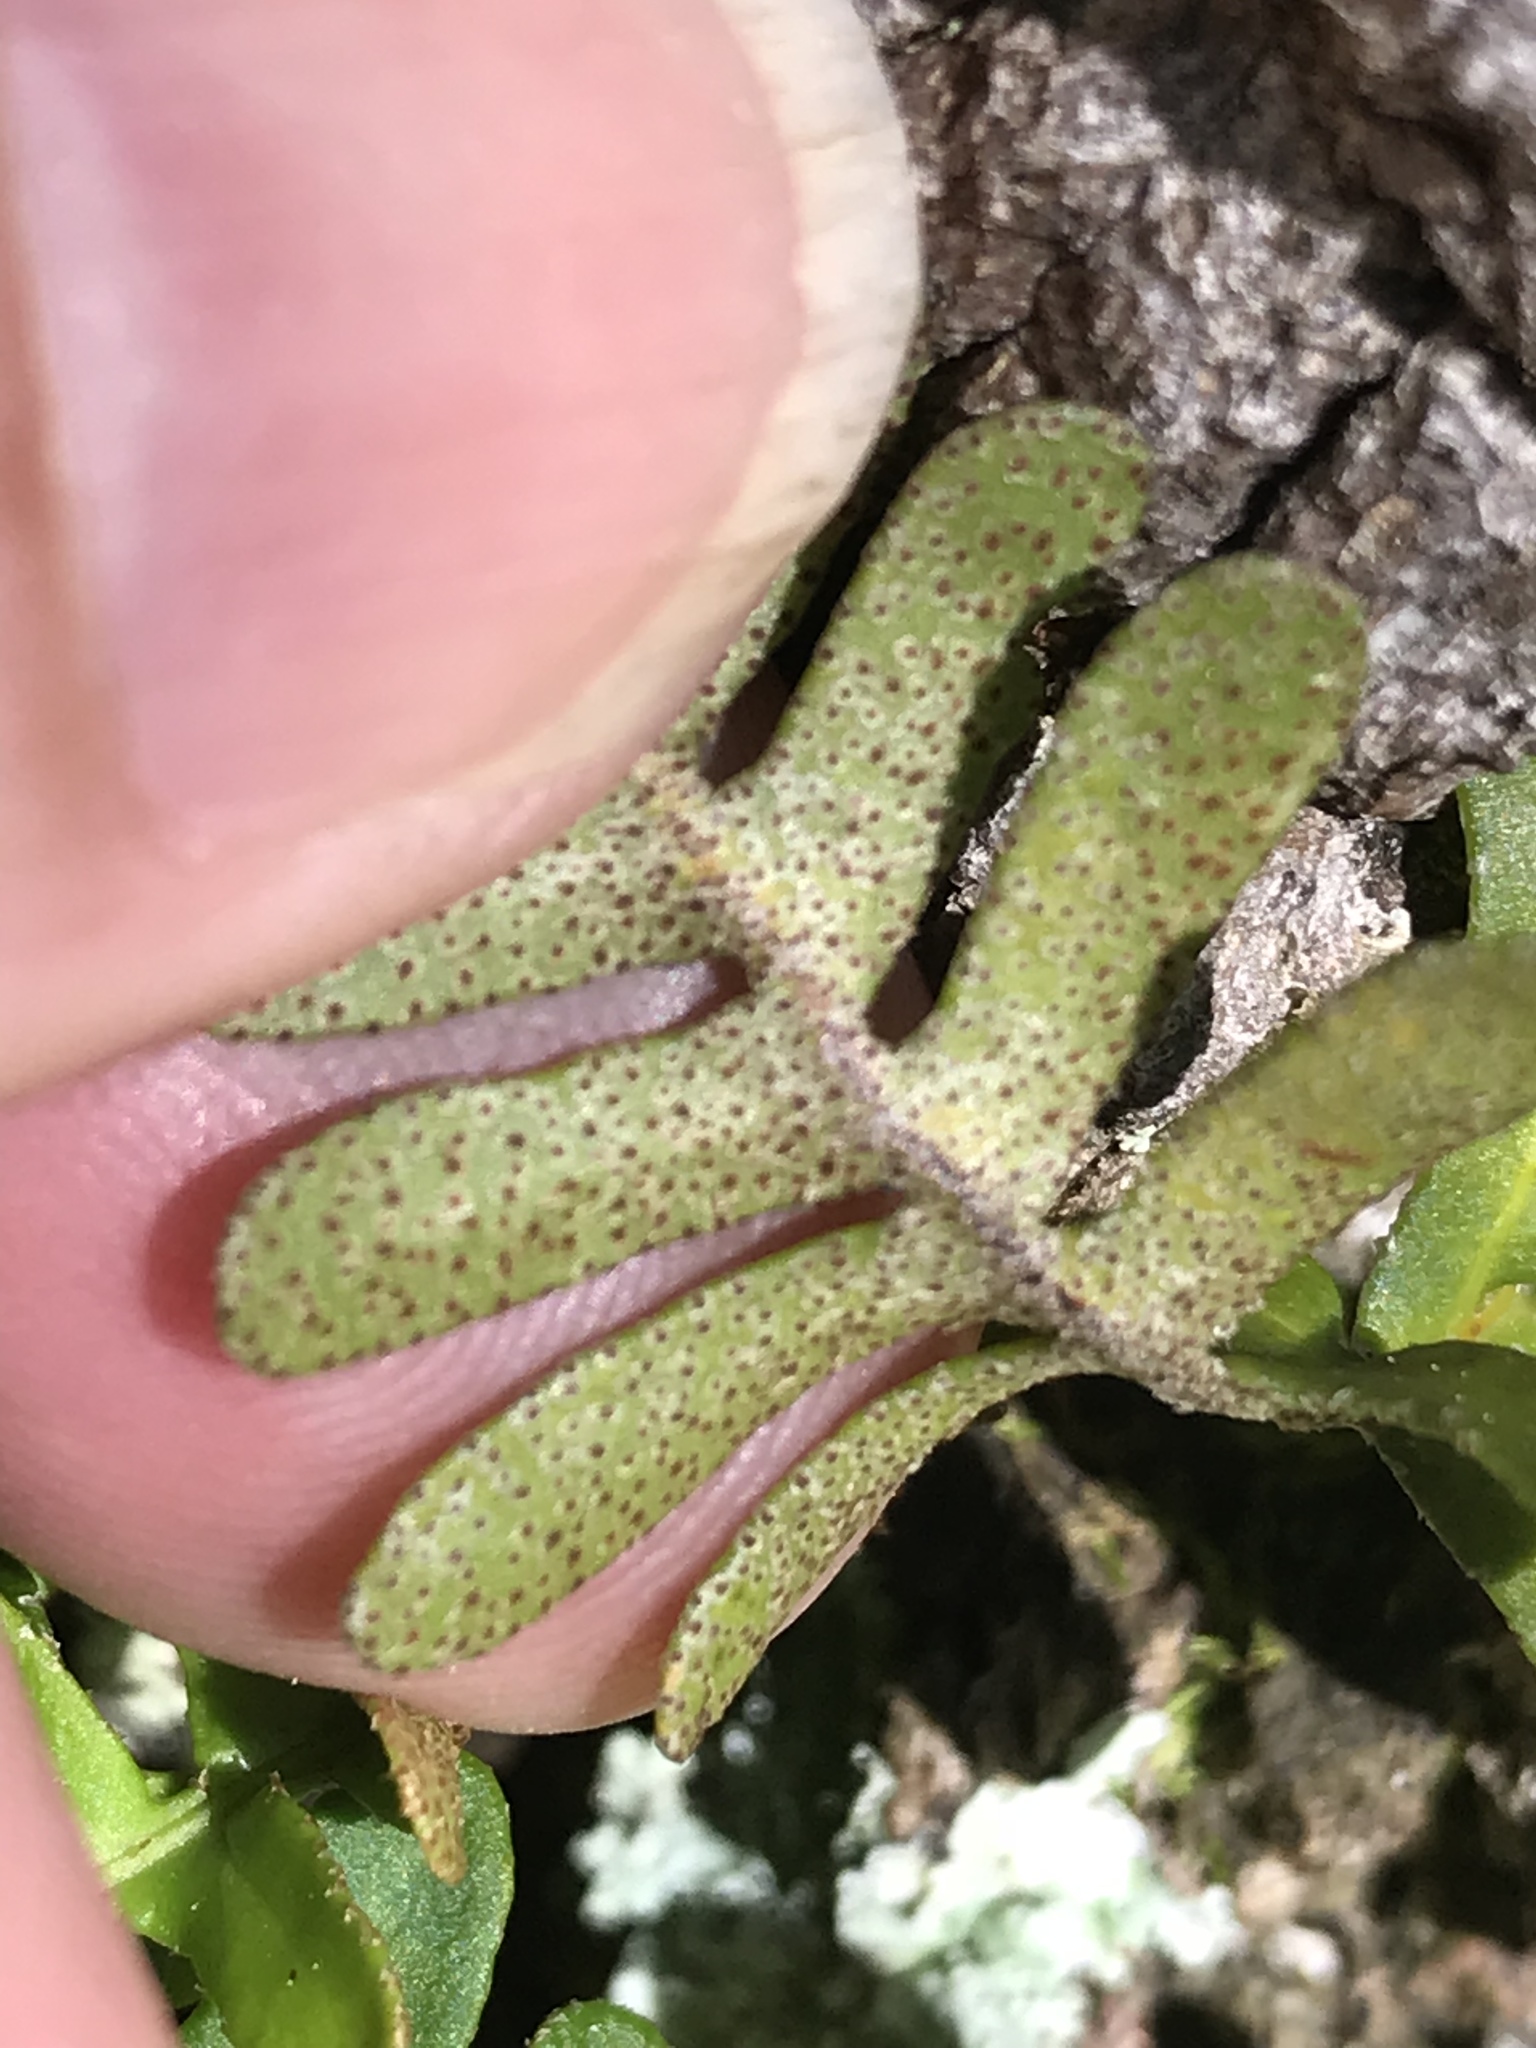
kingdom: Plantae
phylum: Tracheophyta
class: Polypodiopsida
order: Polypodiales
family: Polypodiaceae
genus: Pleopeltis
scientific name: Pleopeltis michauxiana
